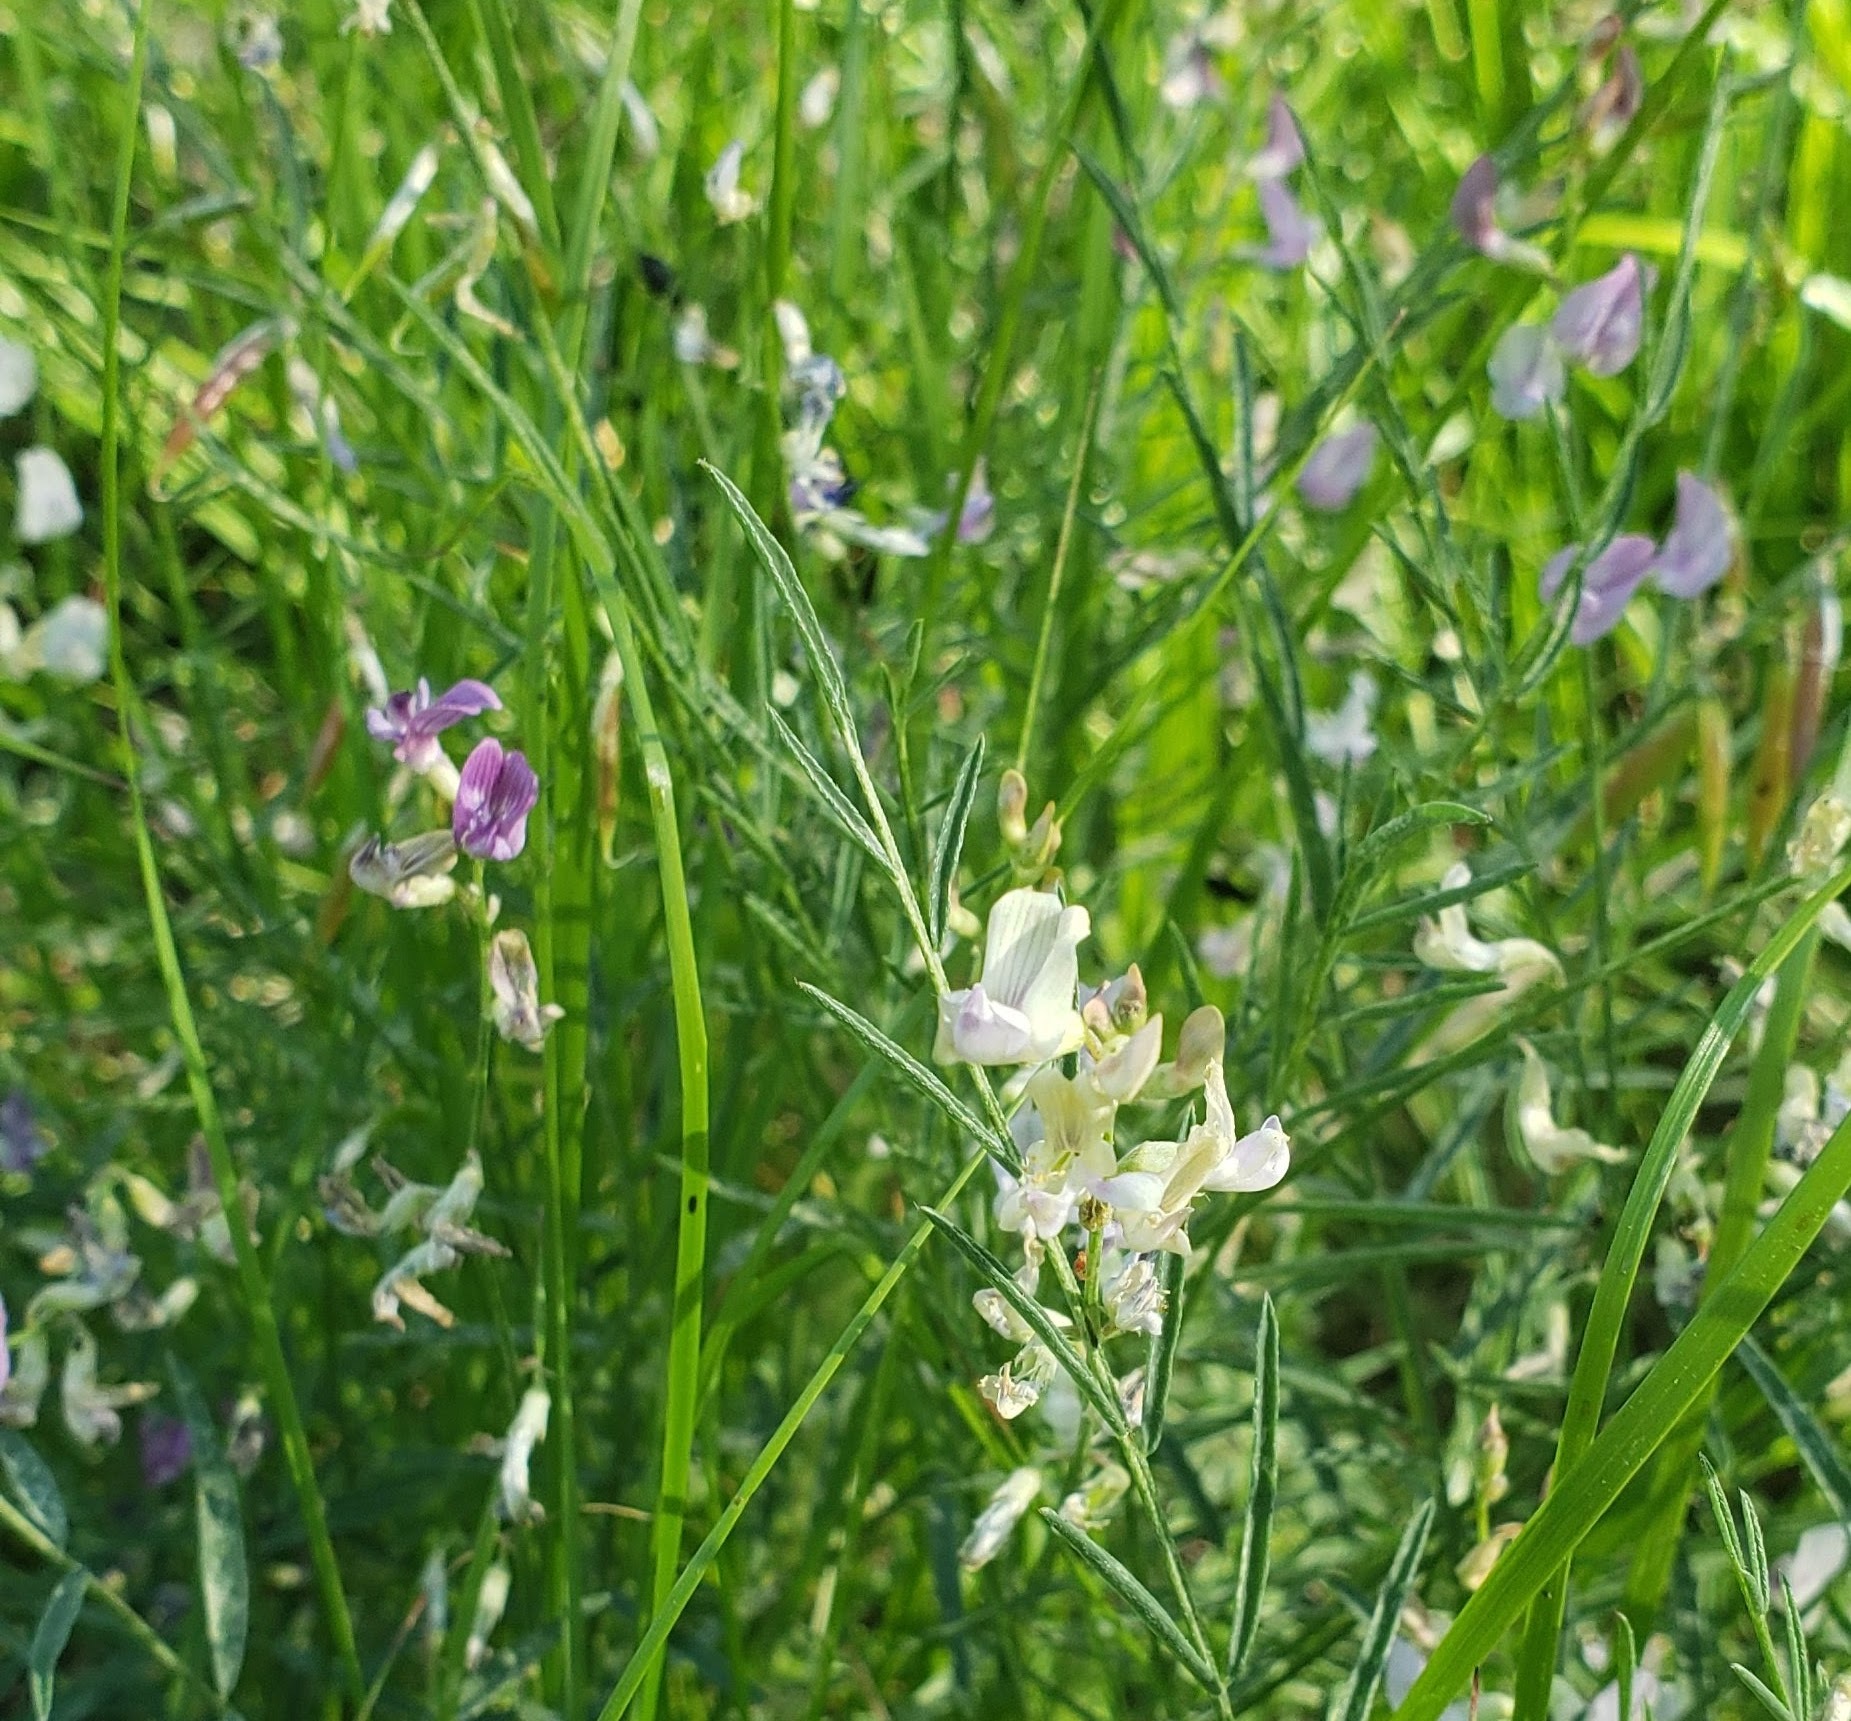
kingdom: Plantae
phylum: Tracheophyta
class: Magnoliopsida
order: Fabales
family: Fabaceae
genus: Astragalus
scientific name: Astragalus miser
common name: Timber milkvetch
